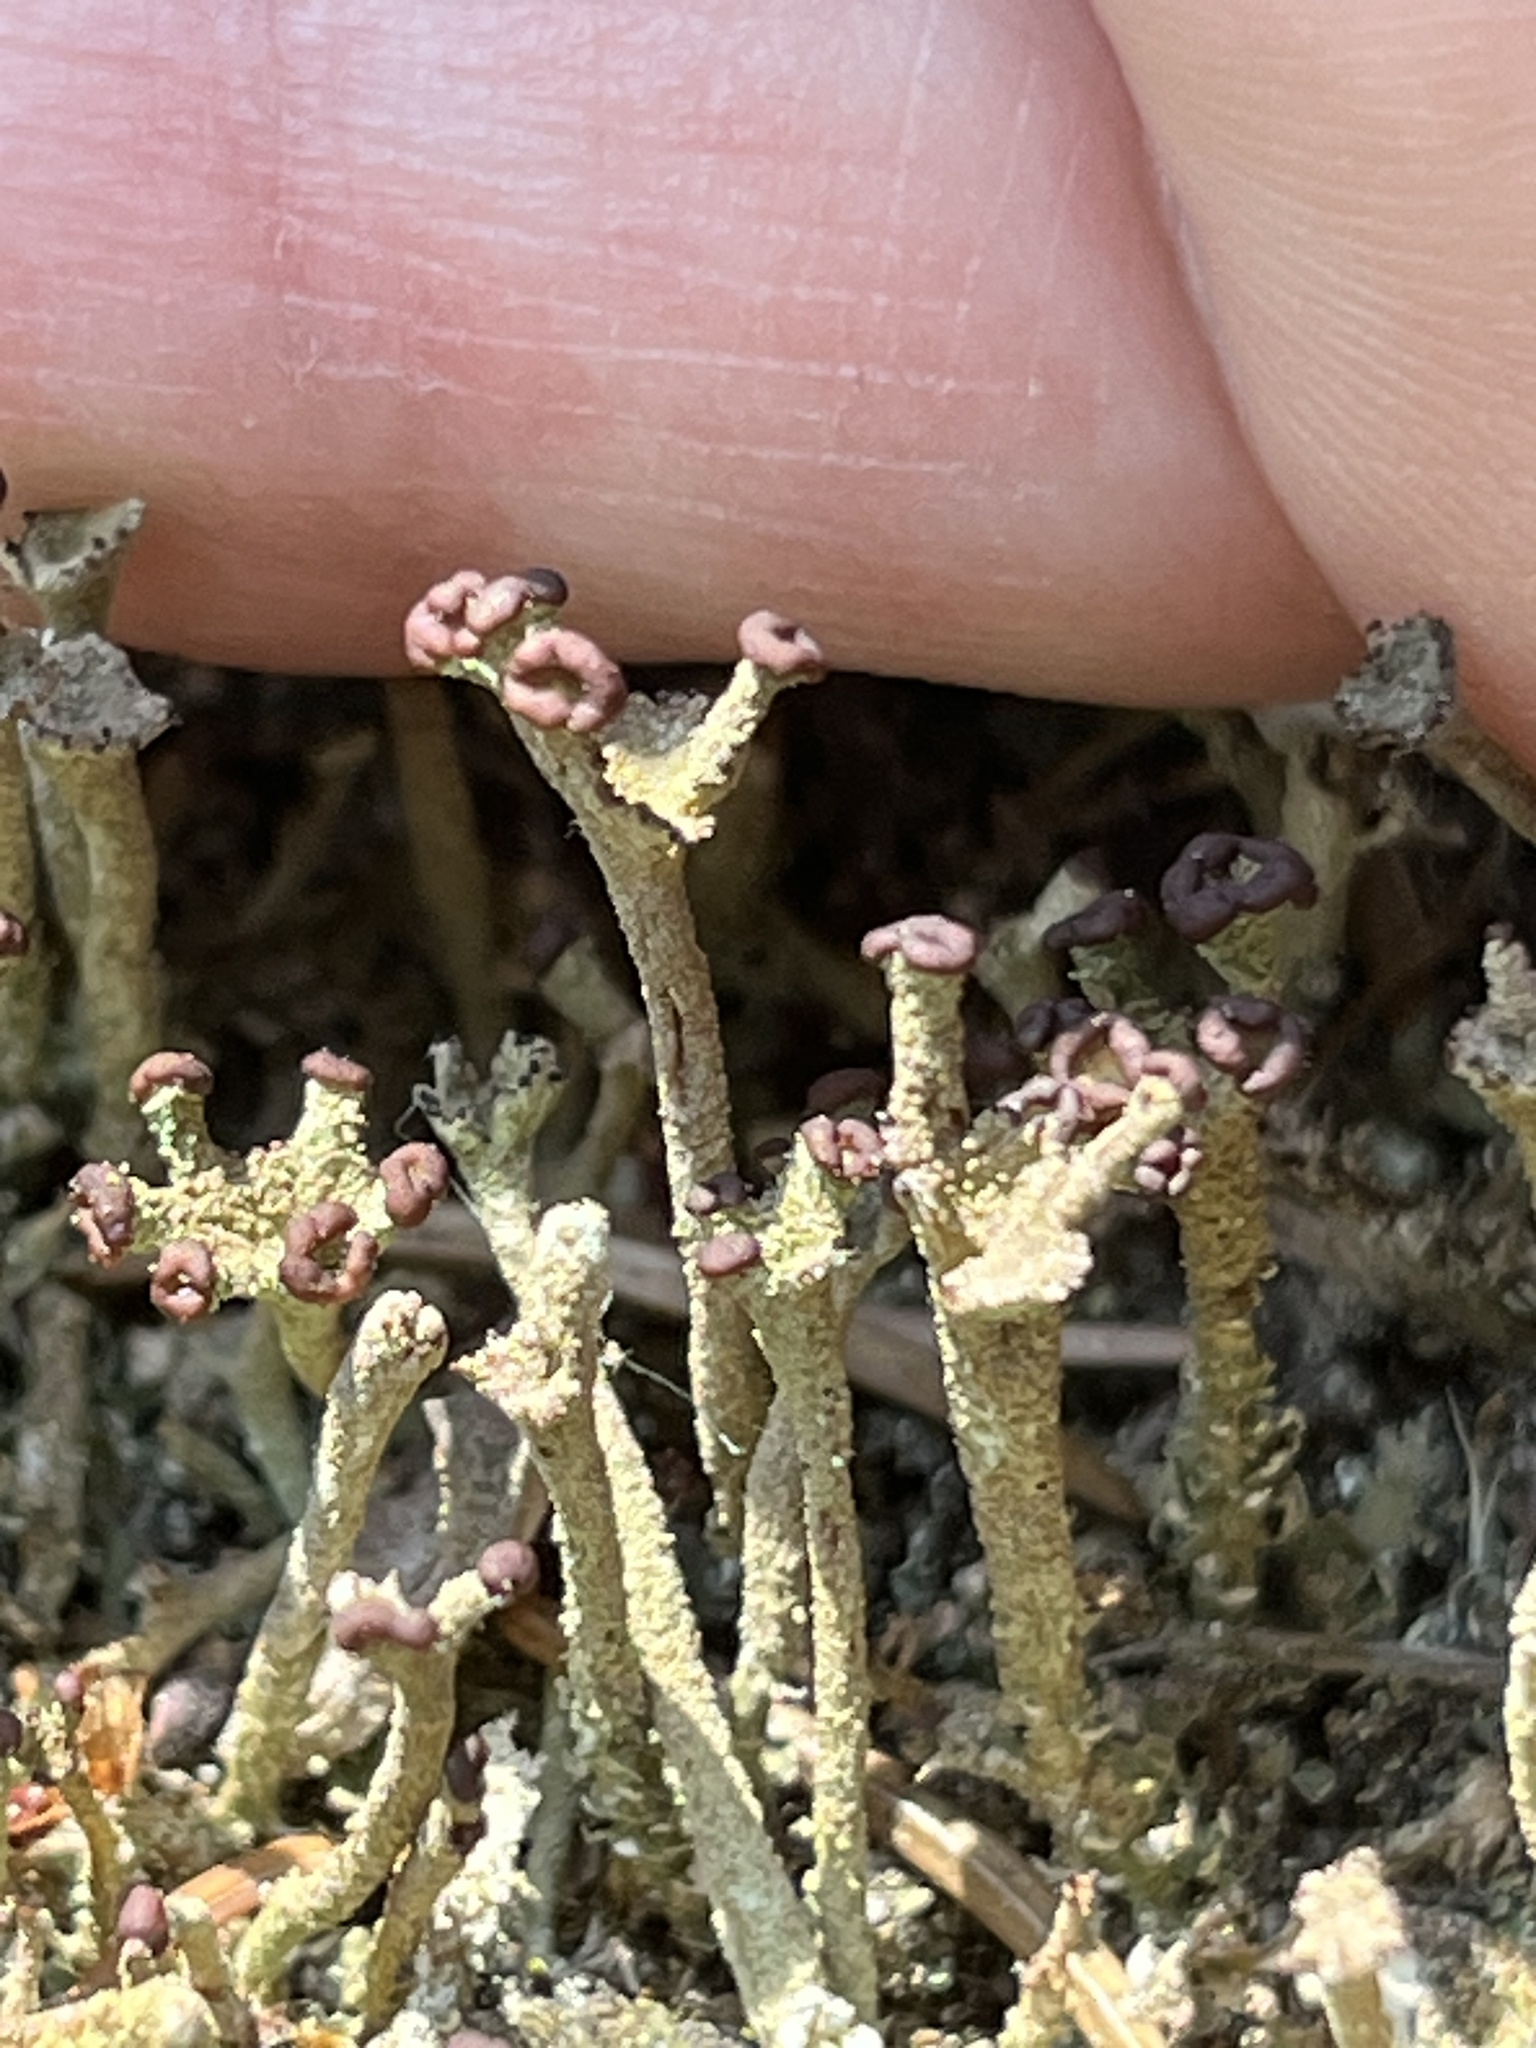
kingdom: Fungi
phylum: Ascomycota
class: Lecanoromycetes
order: Lecanorales
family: Cladoniaceae
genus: Cladonia
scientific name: Cladonia rei
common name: Wand lichen
